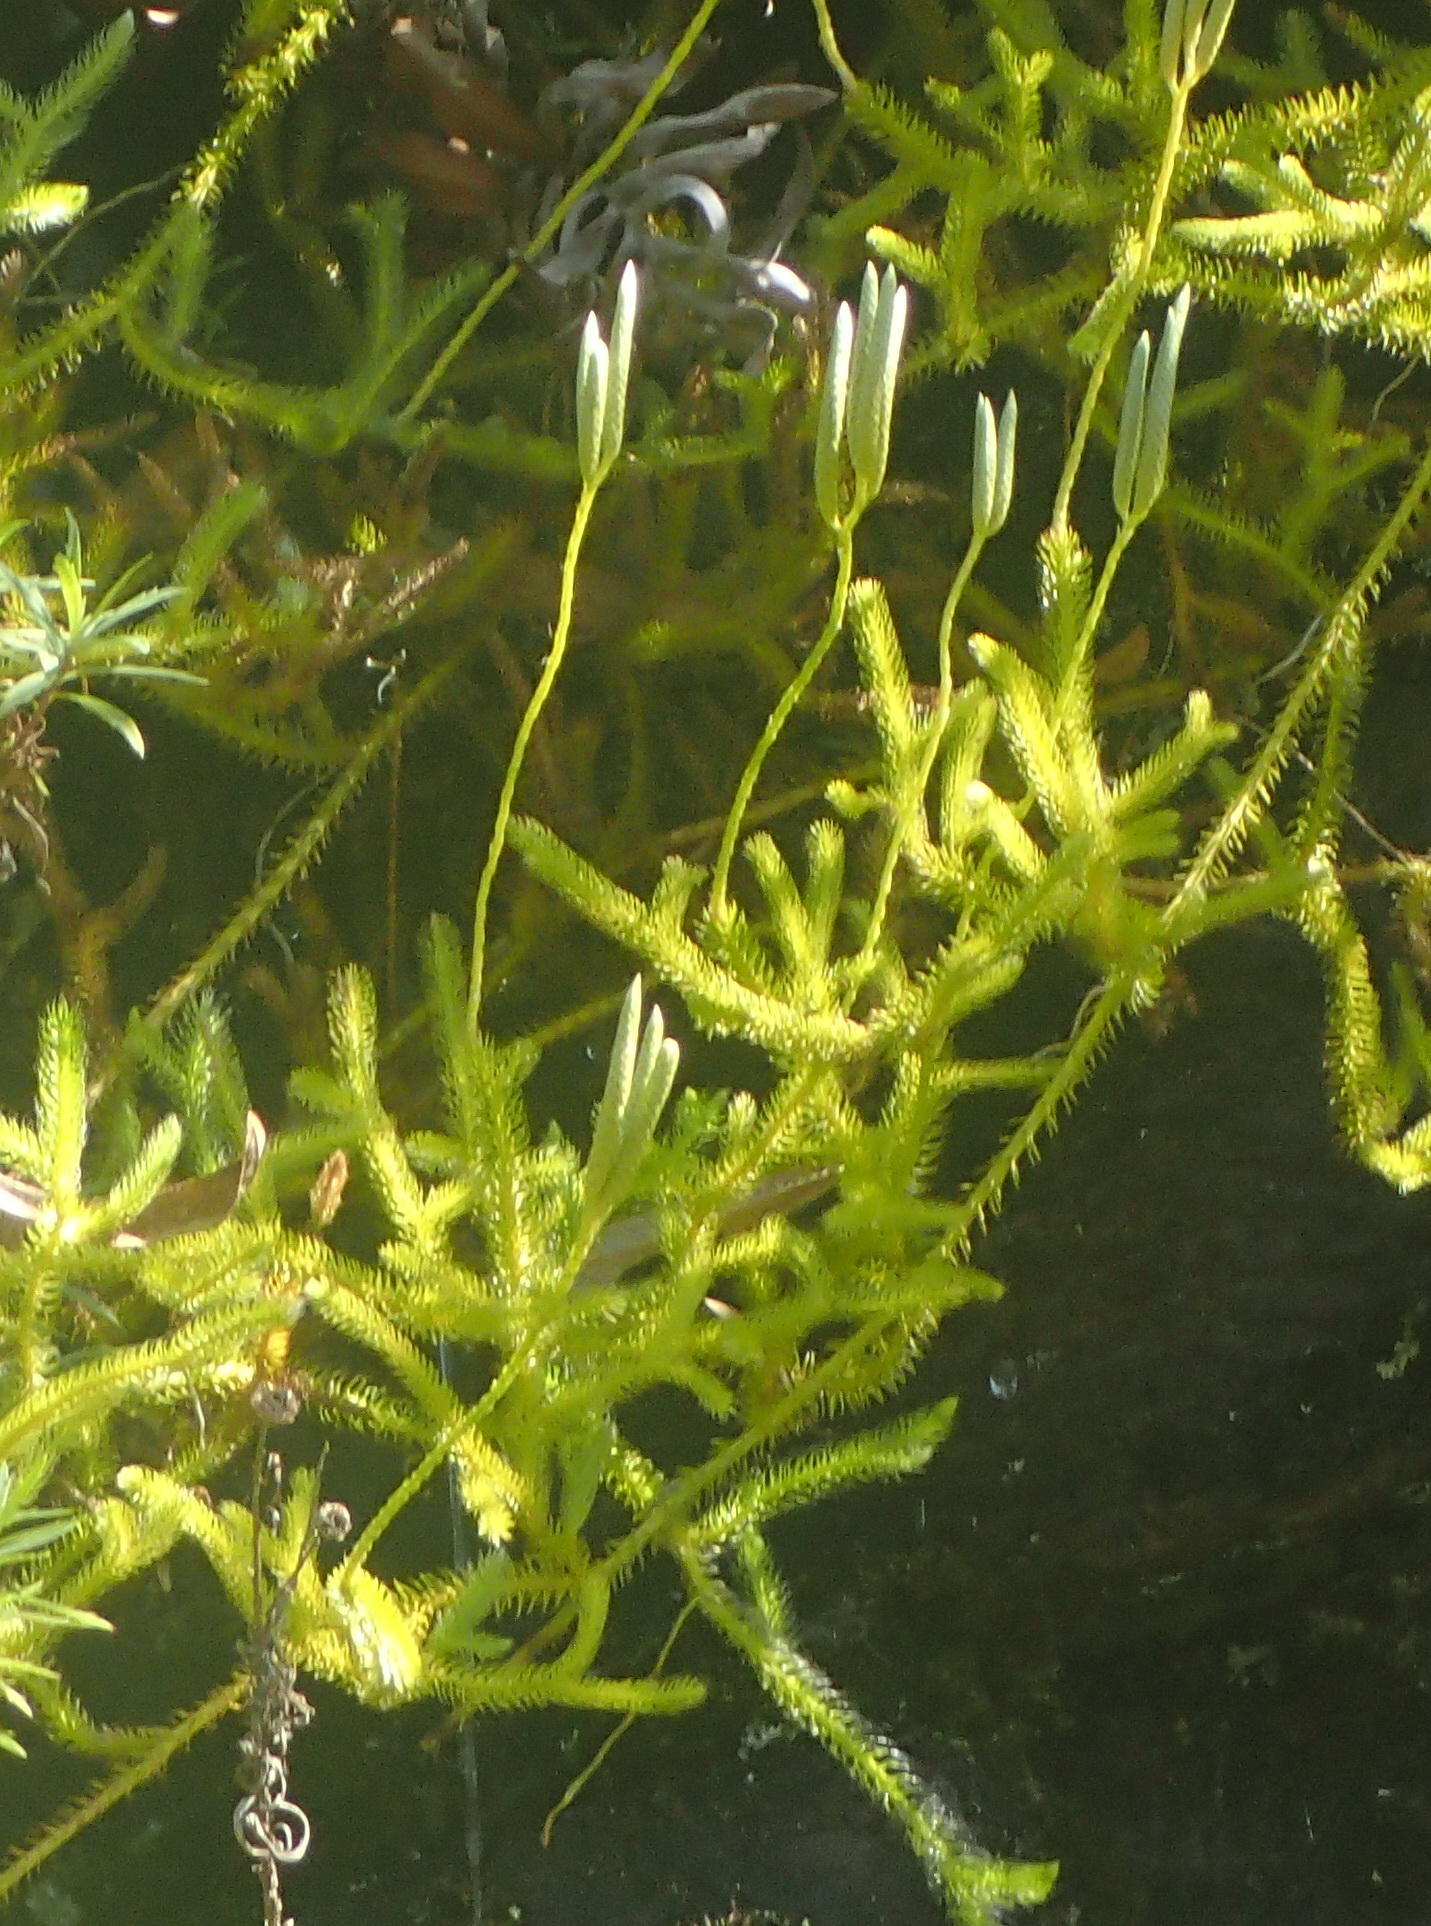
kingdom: Plantae
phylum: Tracheophyta
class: Lycopodiopsida
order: Lycopodiales
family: Lycopodiaceae
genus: Lycopodium
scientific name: Lycopodium clavatum
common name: Stag's-horn clubmoss
